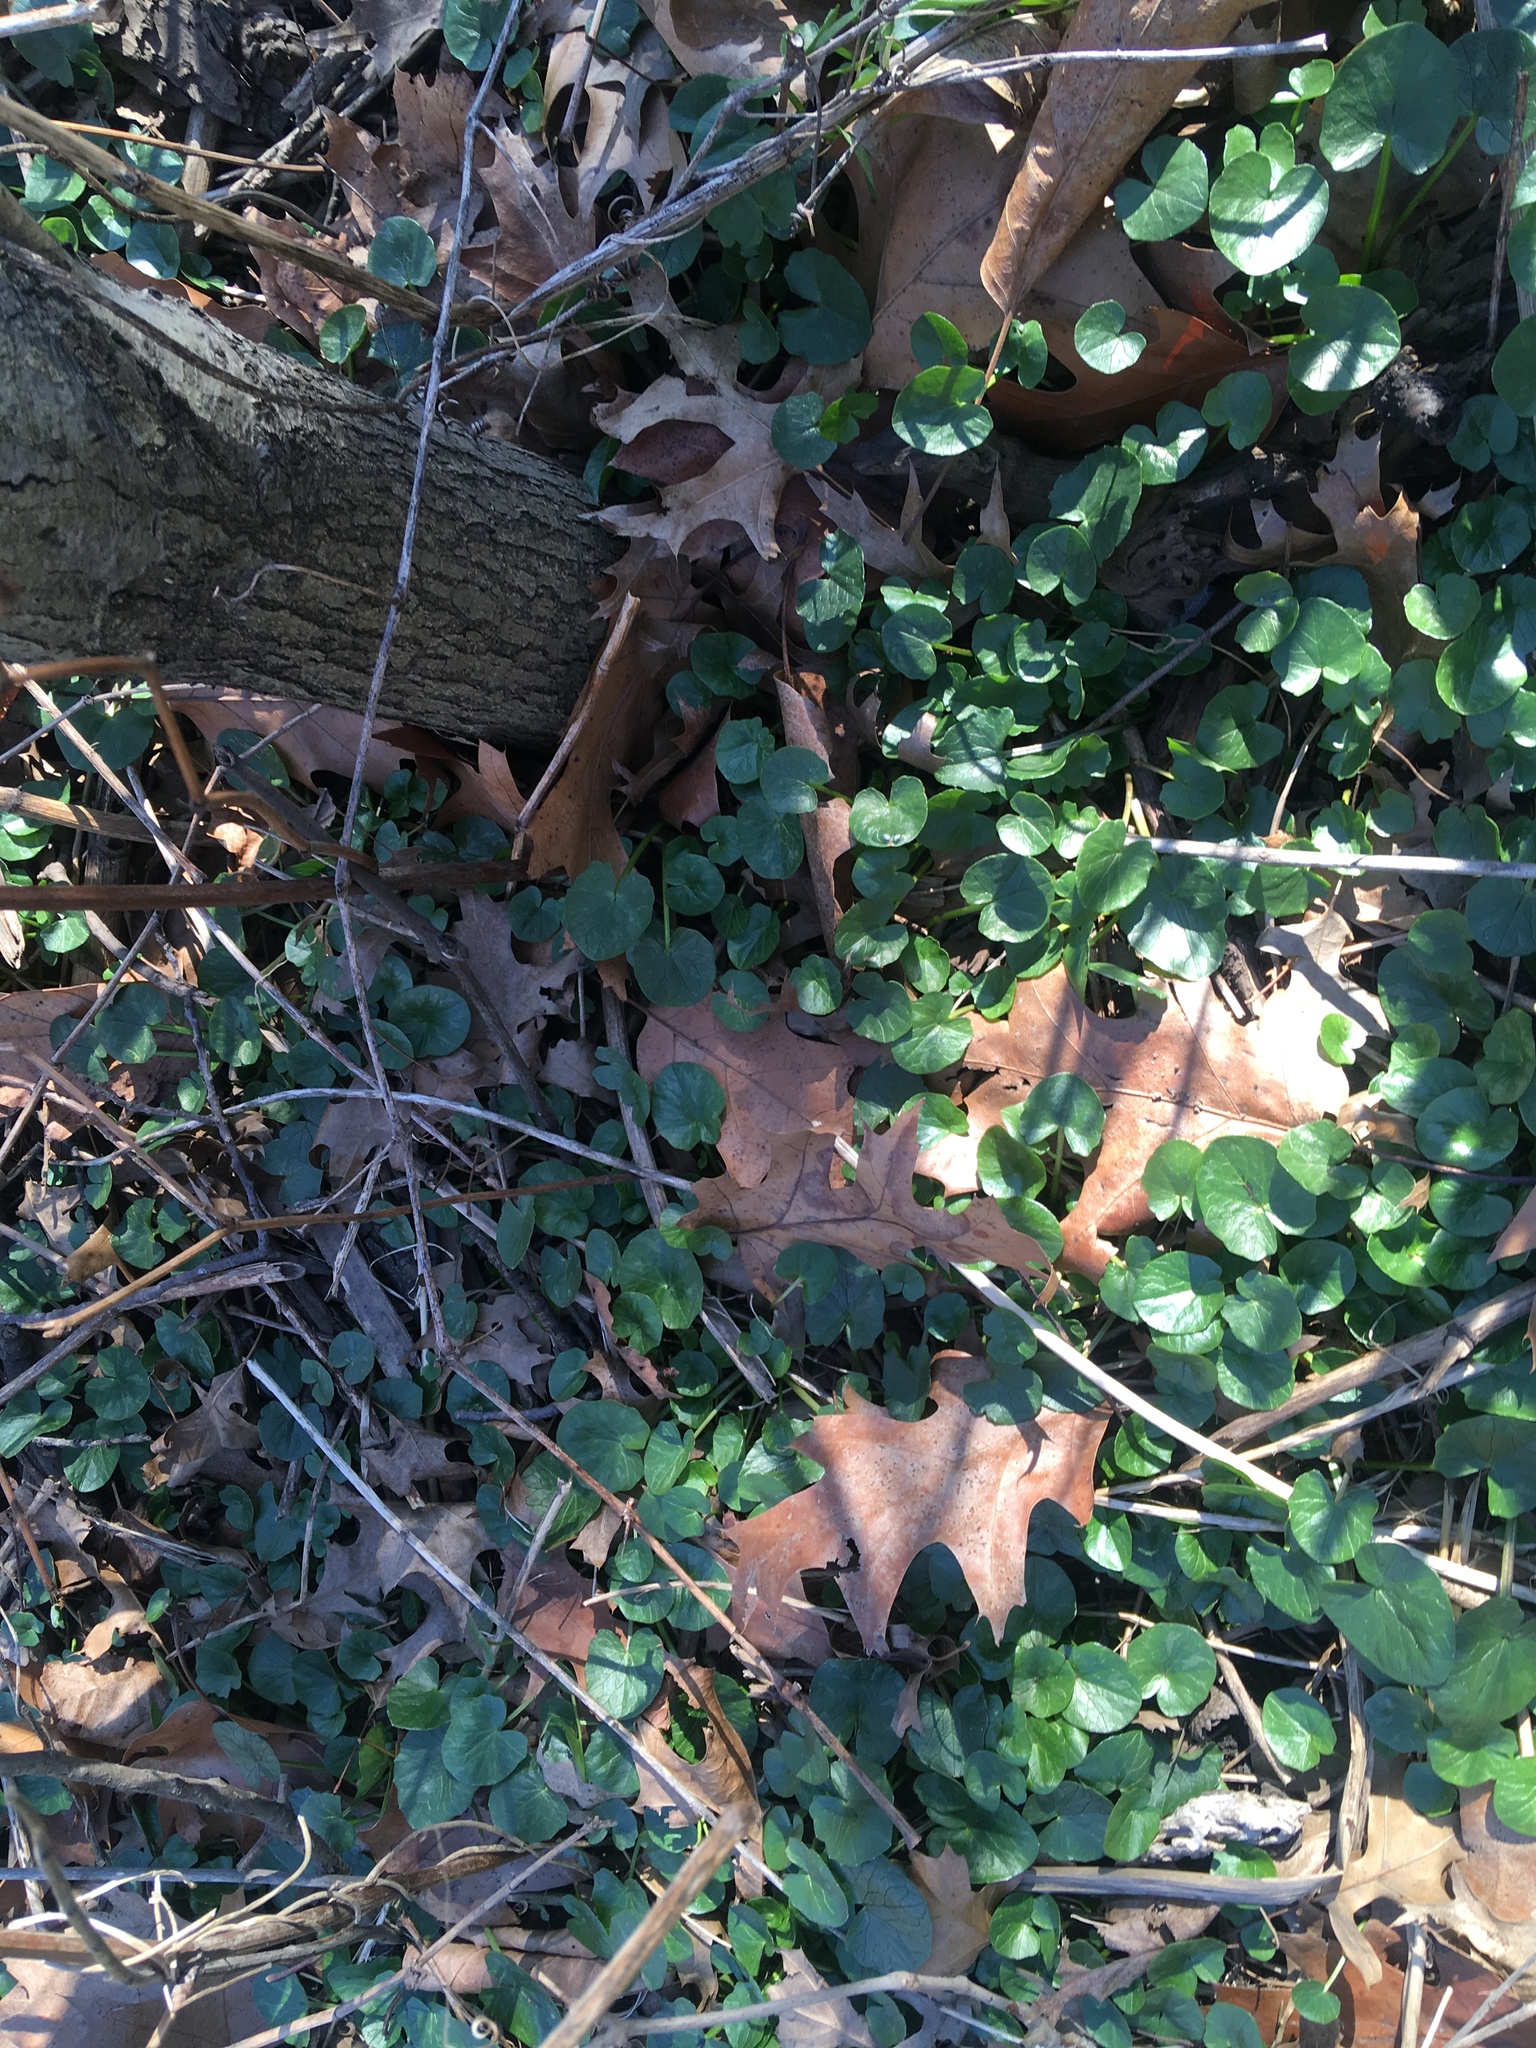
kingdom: Plantae
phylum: Tracheophyta
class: Magnoliopsida
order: Ranunculales
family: Ranunculaceae
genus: Ficaria
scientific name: Ficaria verna
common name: Lesser celandine
